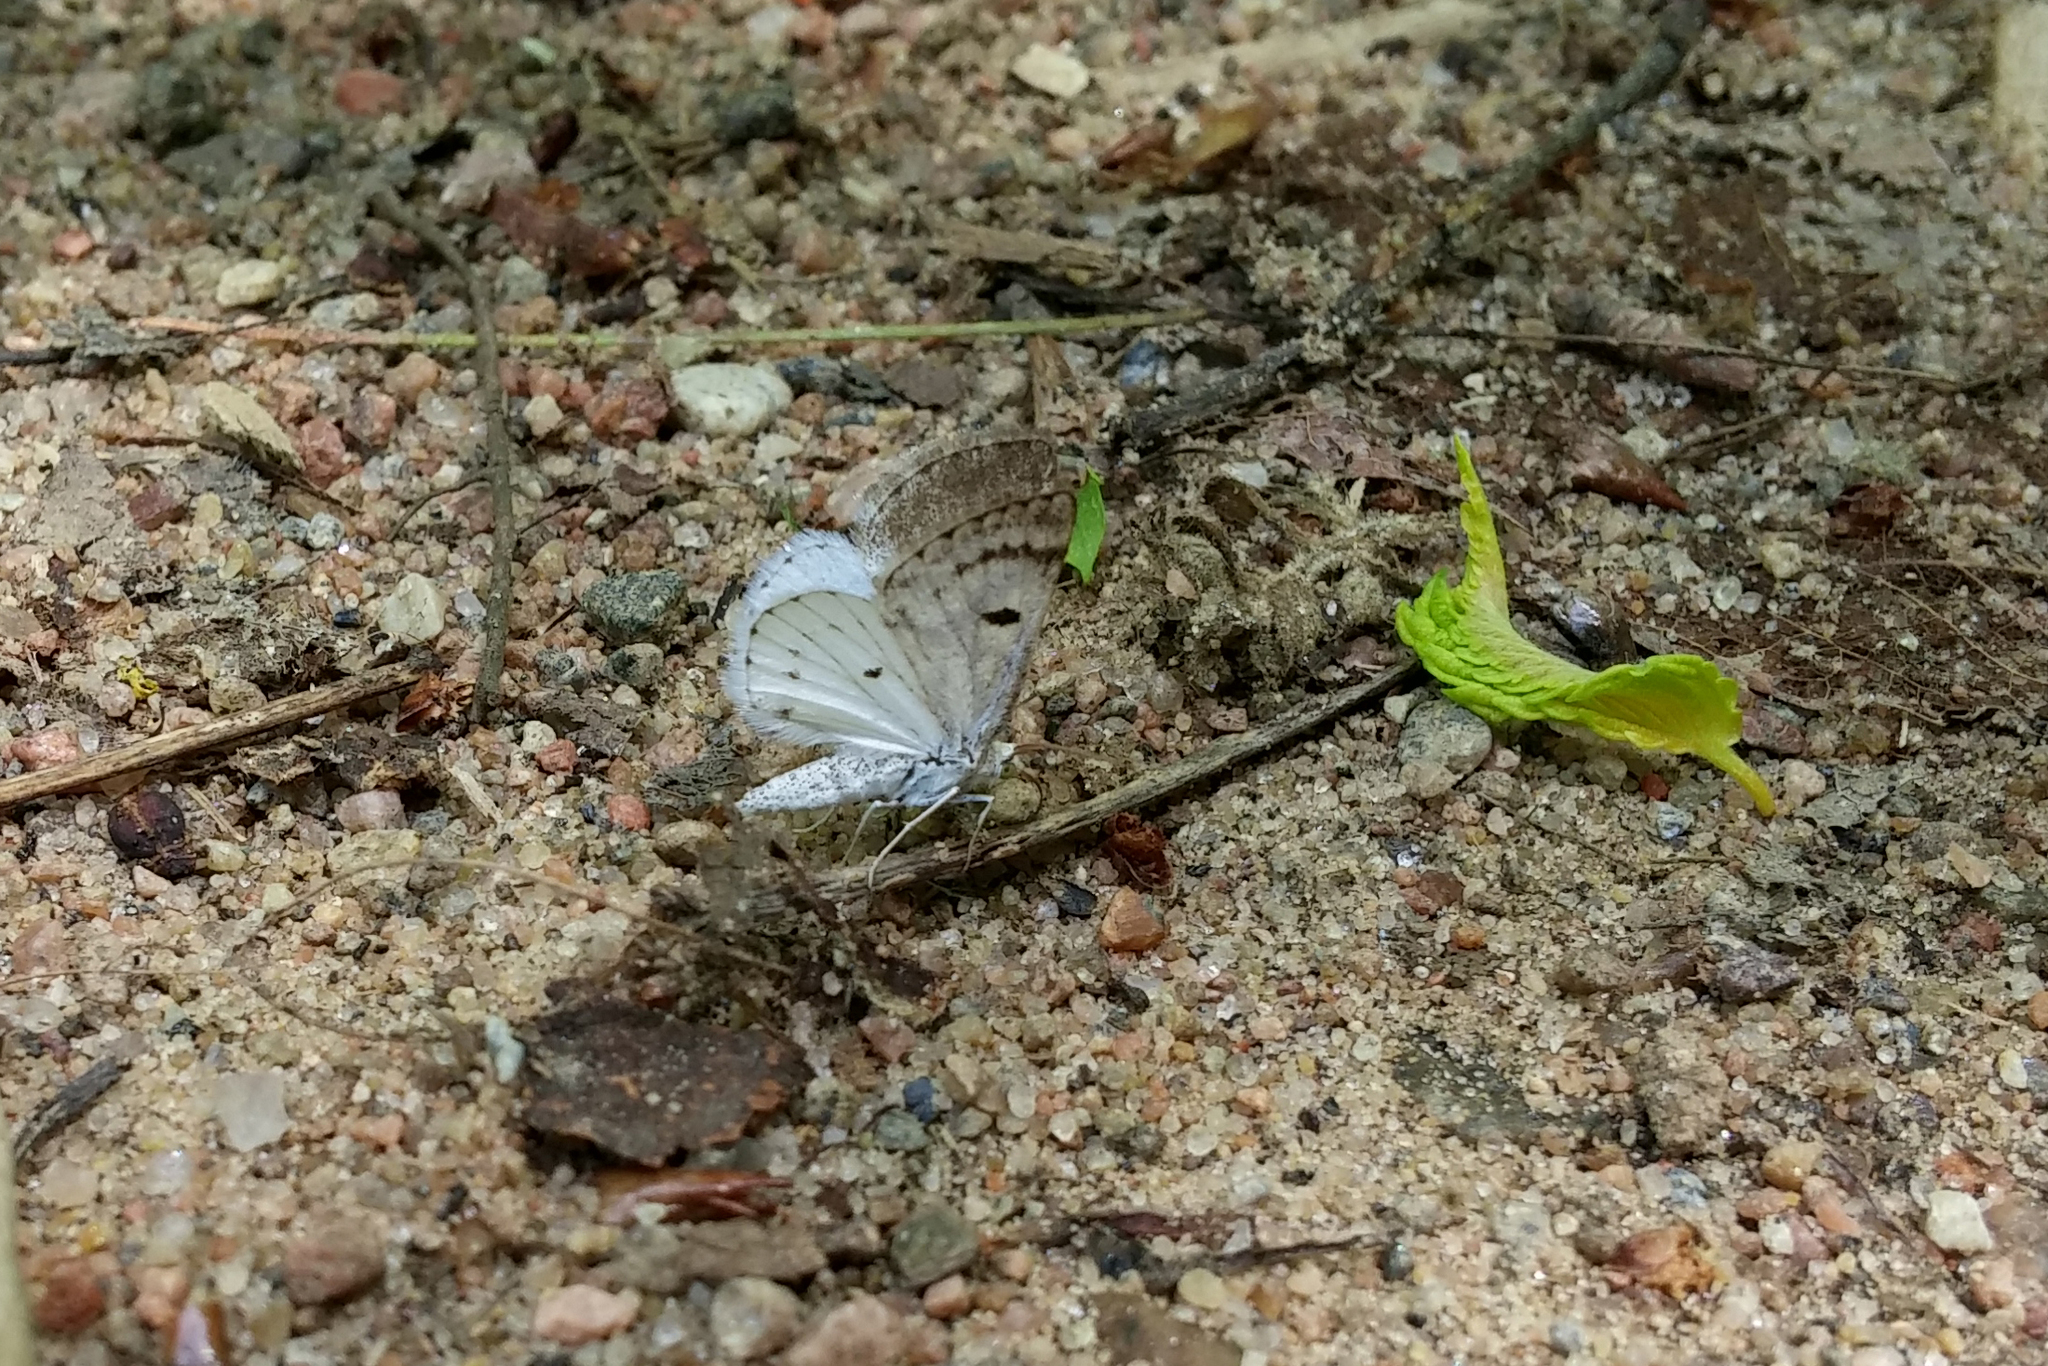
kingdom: Animalia
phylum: Arthropoda
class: Insecta
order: Lepidoptera
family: Geometridae
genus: Lomographa
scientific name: Lomographa semiclarata
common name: Bluish spring moth
